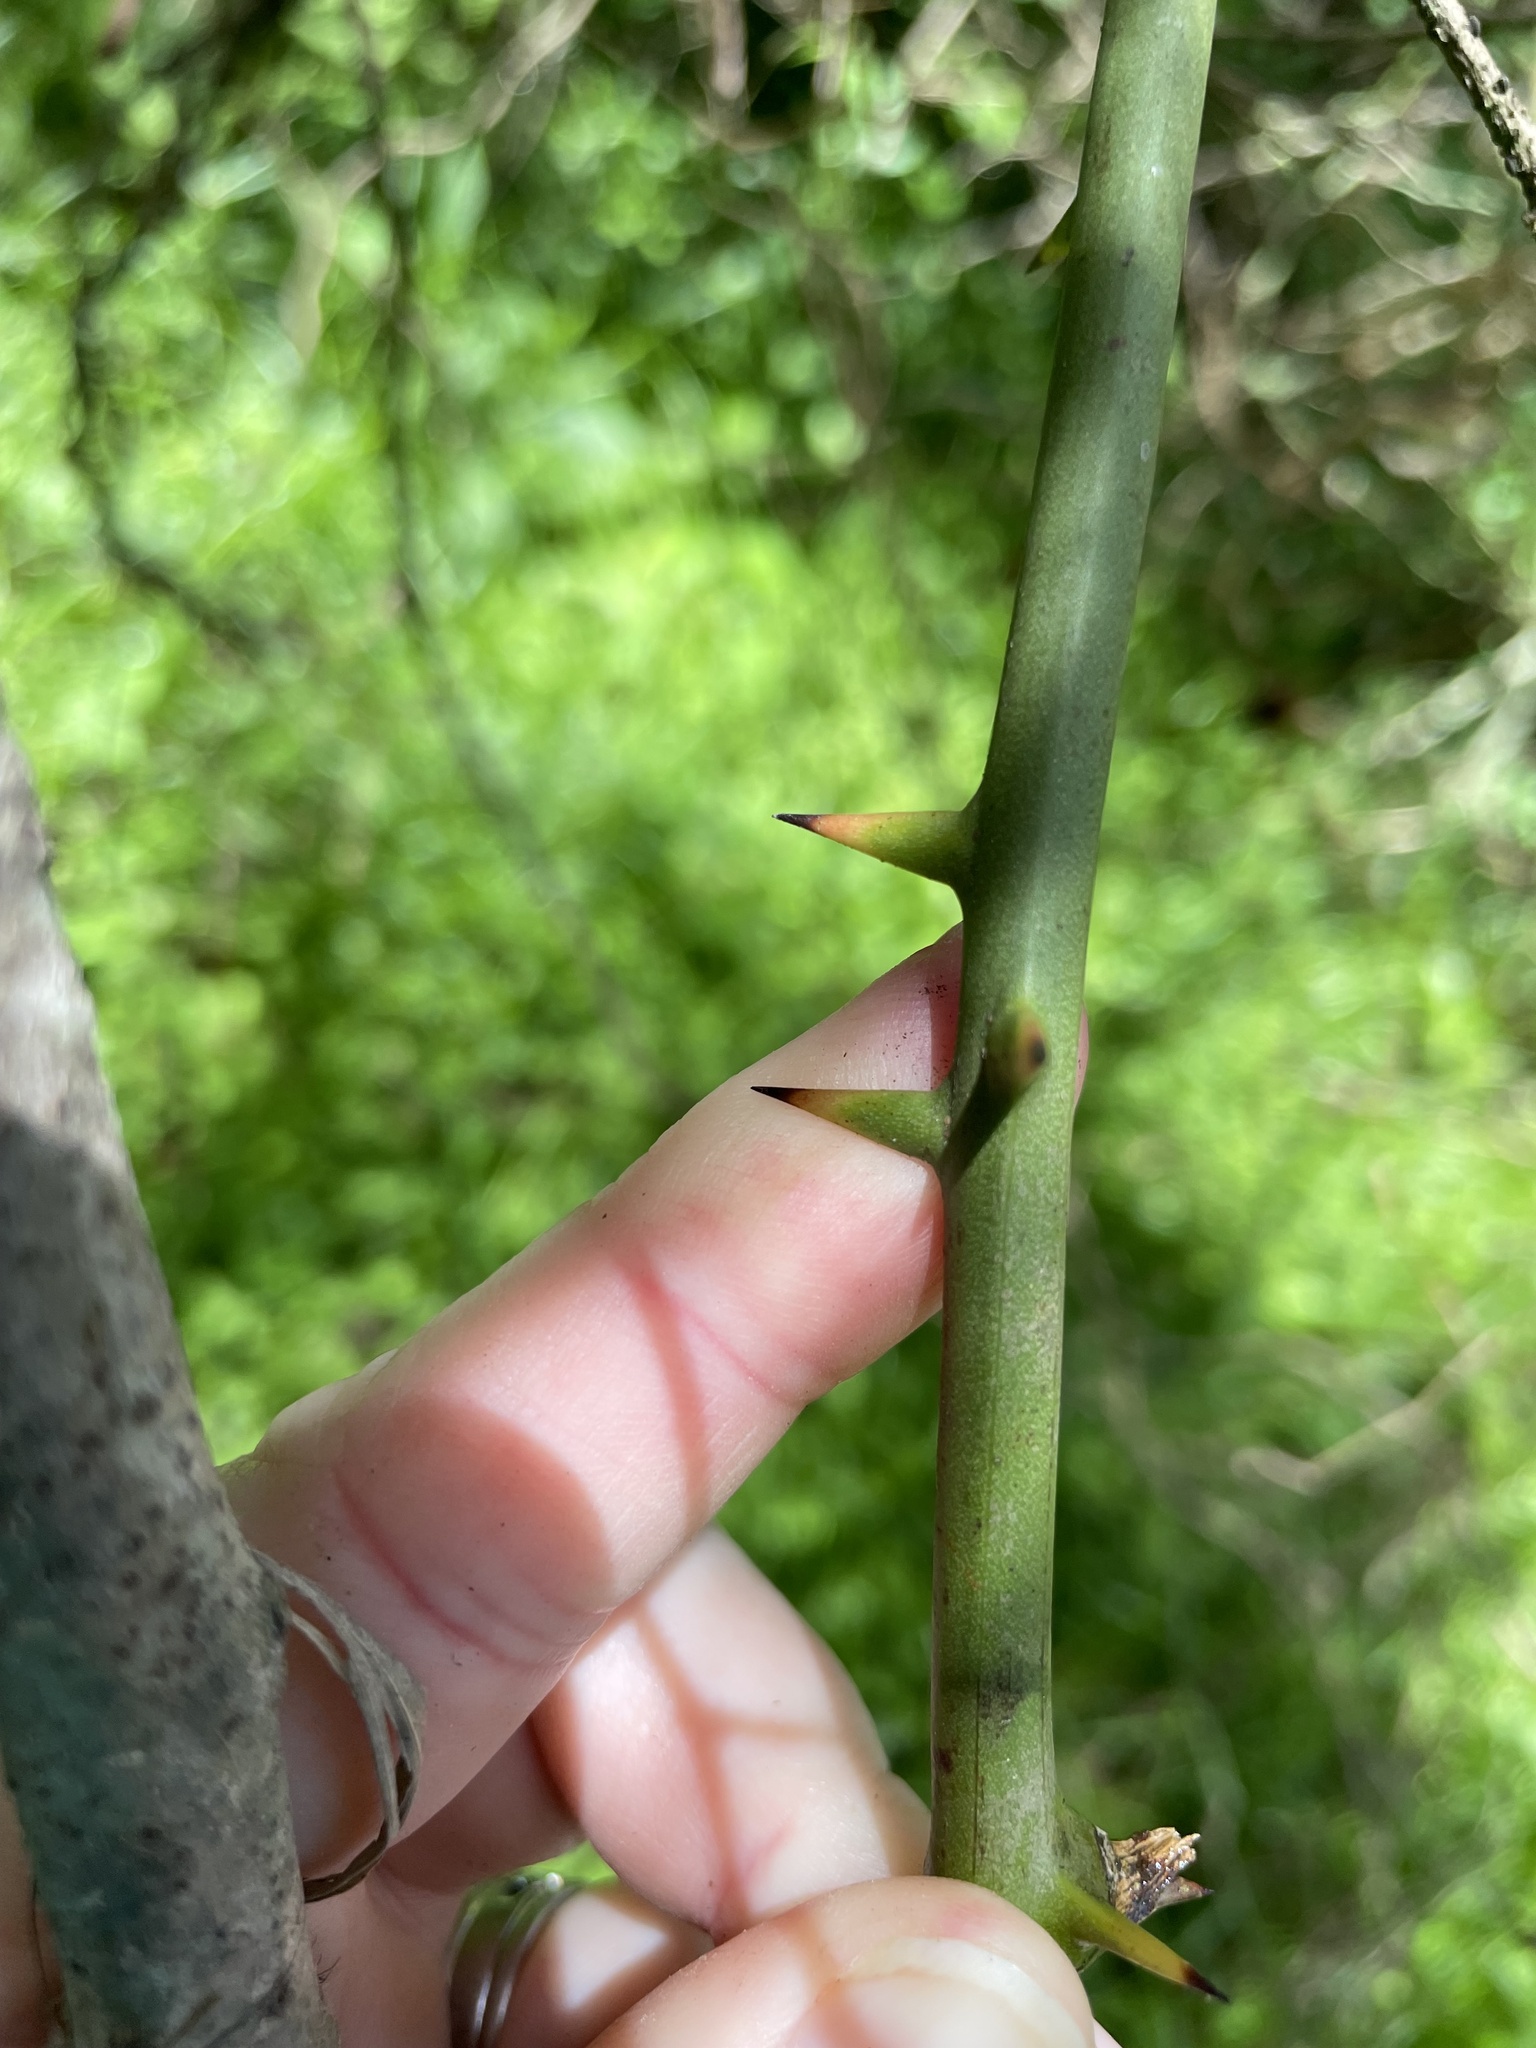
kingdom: Plantae
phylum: Tracheophyta
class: Liliopsida
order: Liliales
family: Smilacaceae
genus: Smilax
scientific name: Smilax rotundifolia
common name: Bullbriar
